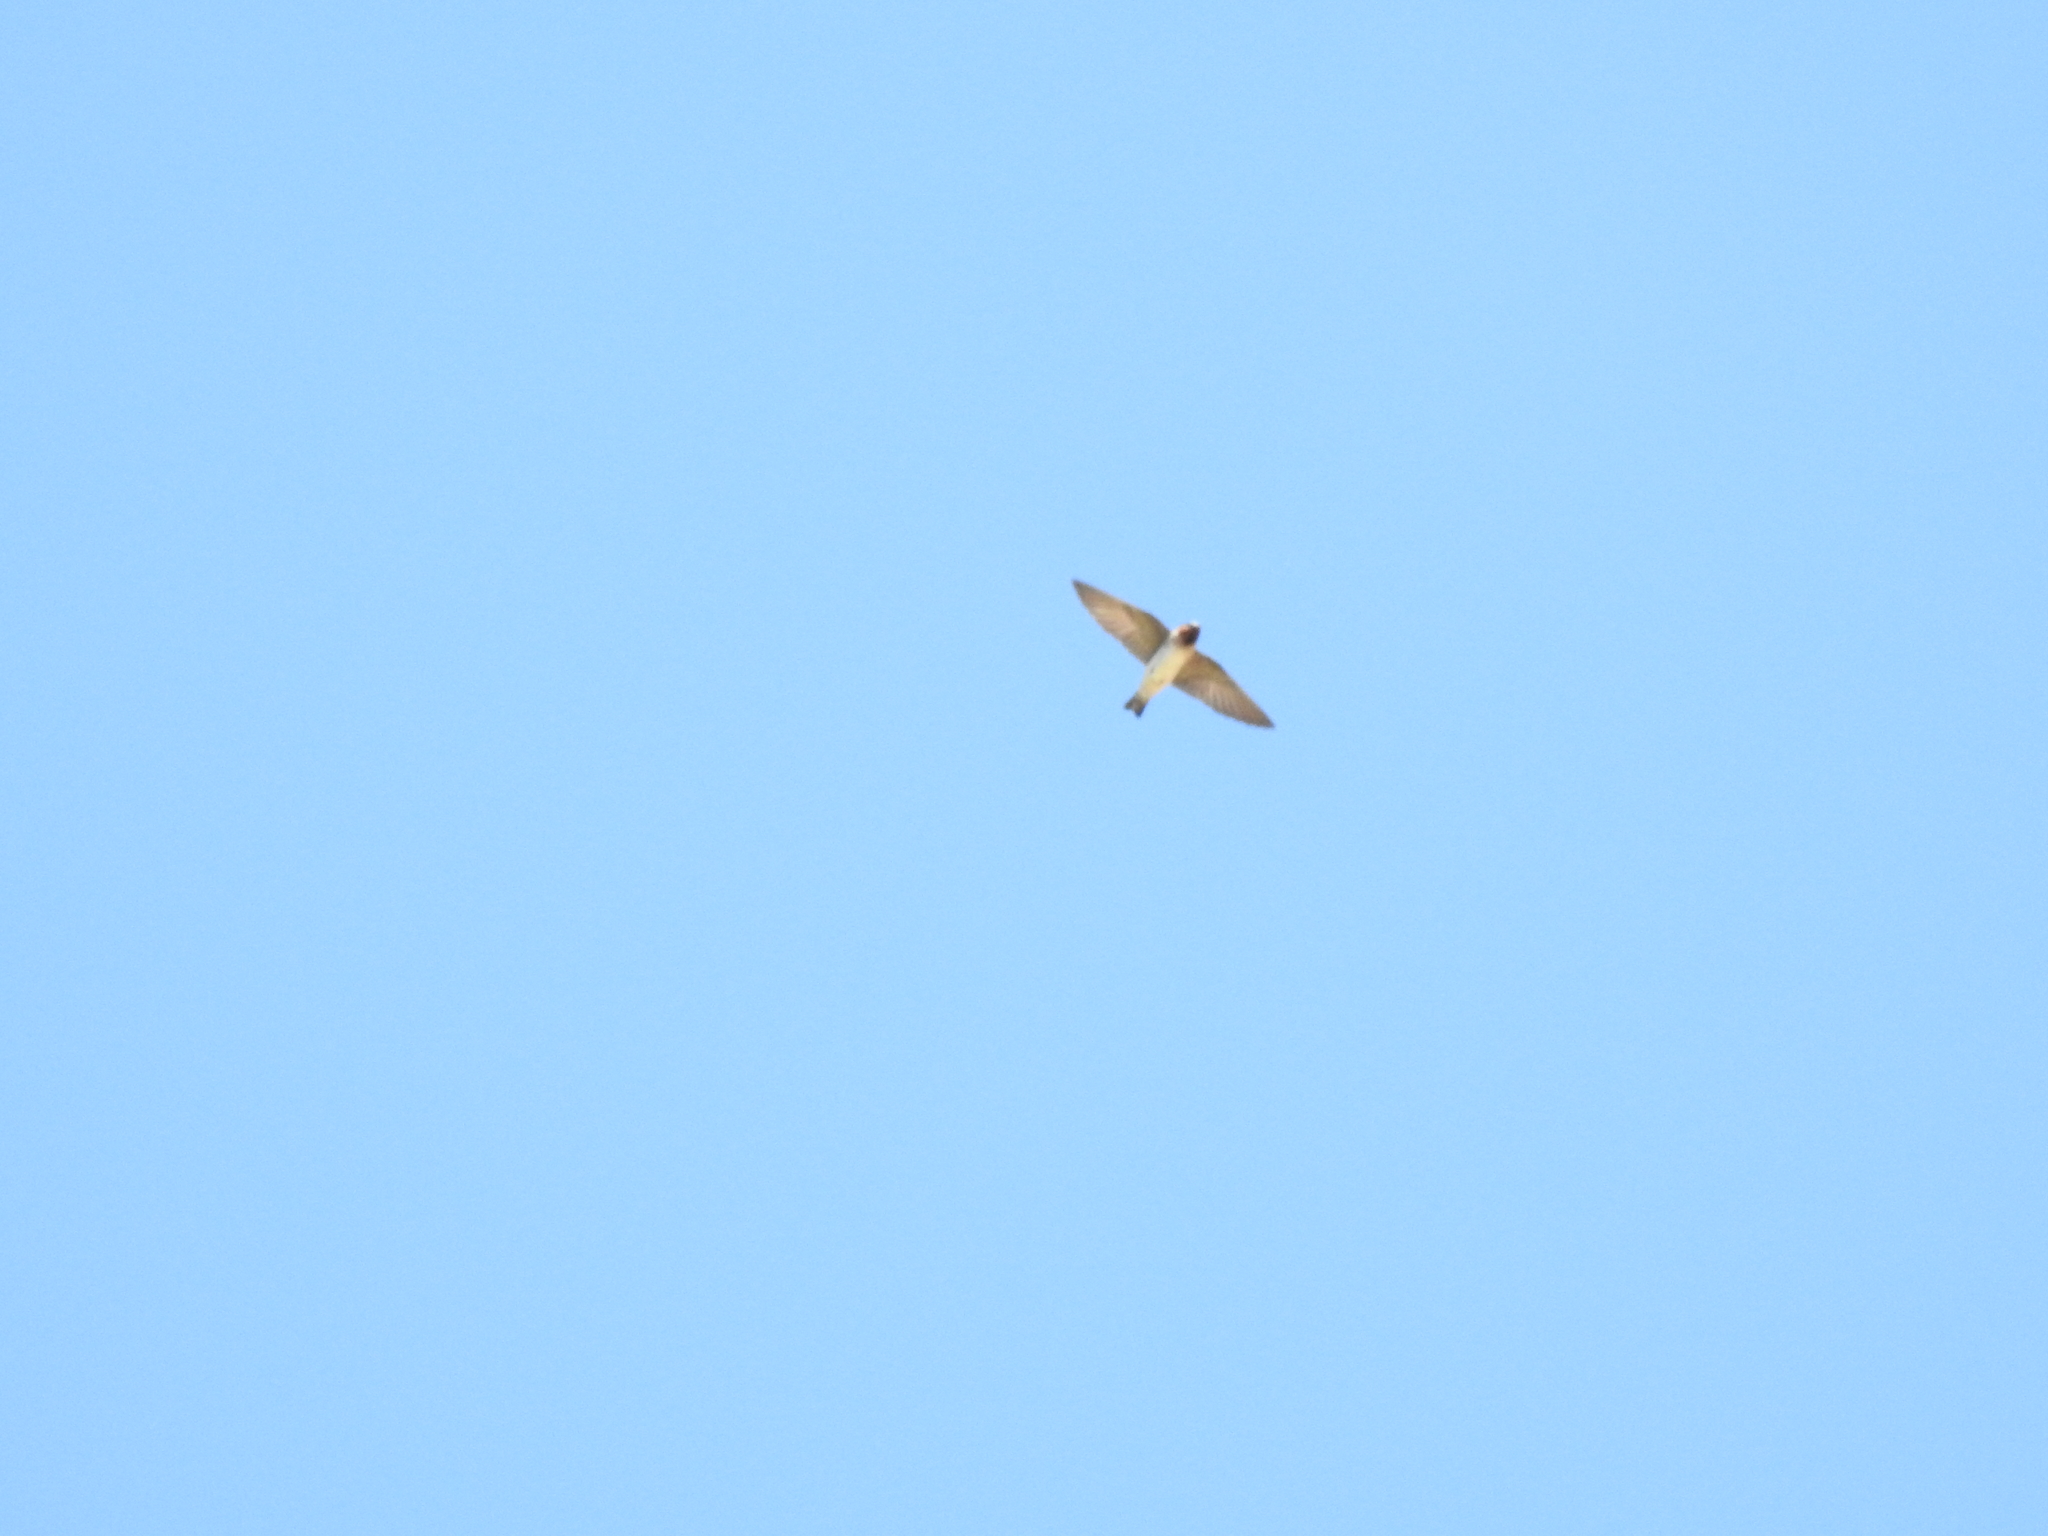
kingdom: Animalia
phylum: Chordata
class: Aves
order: Passeriformes
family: Hirundinidae
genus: Petrochelidon
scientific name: Petrochelidon pyrrhonota
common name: American cliff swallow
